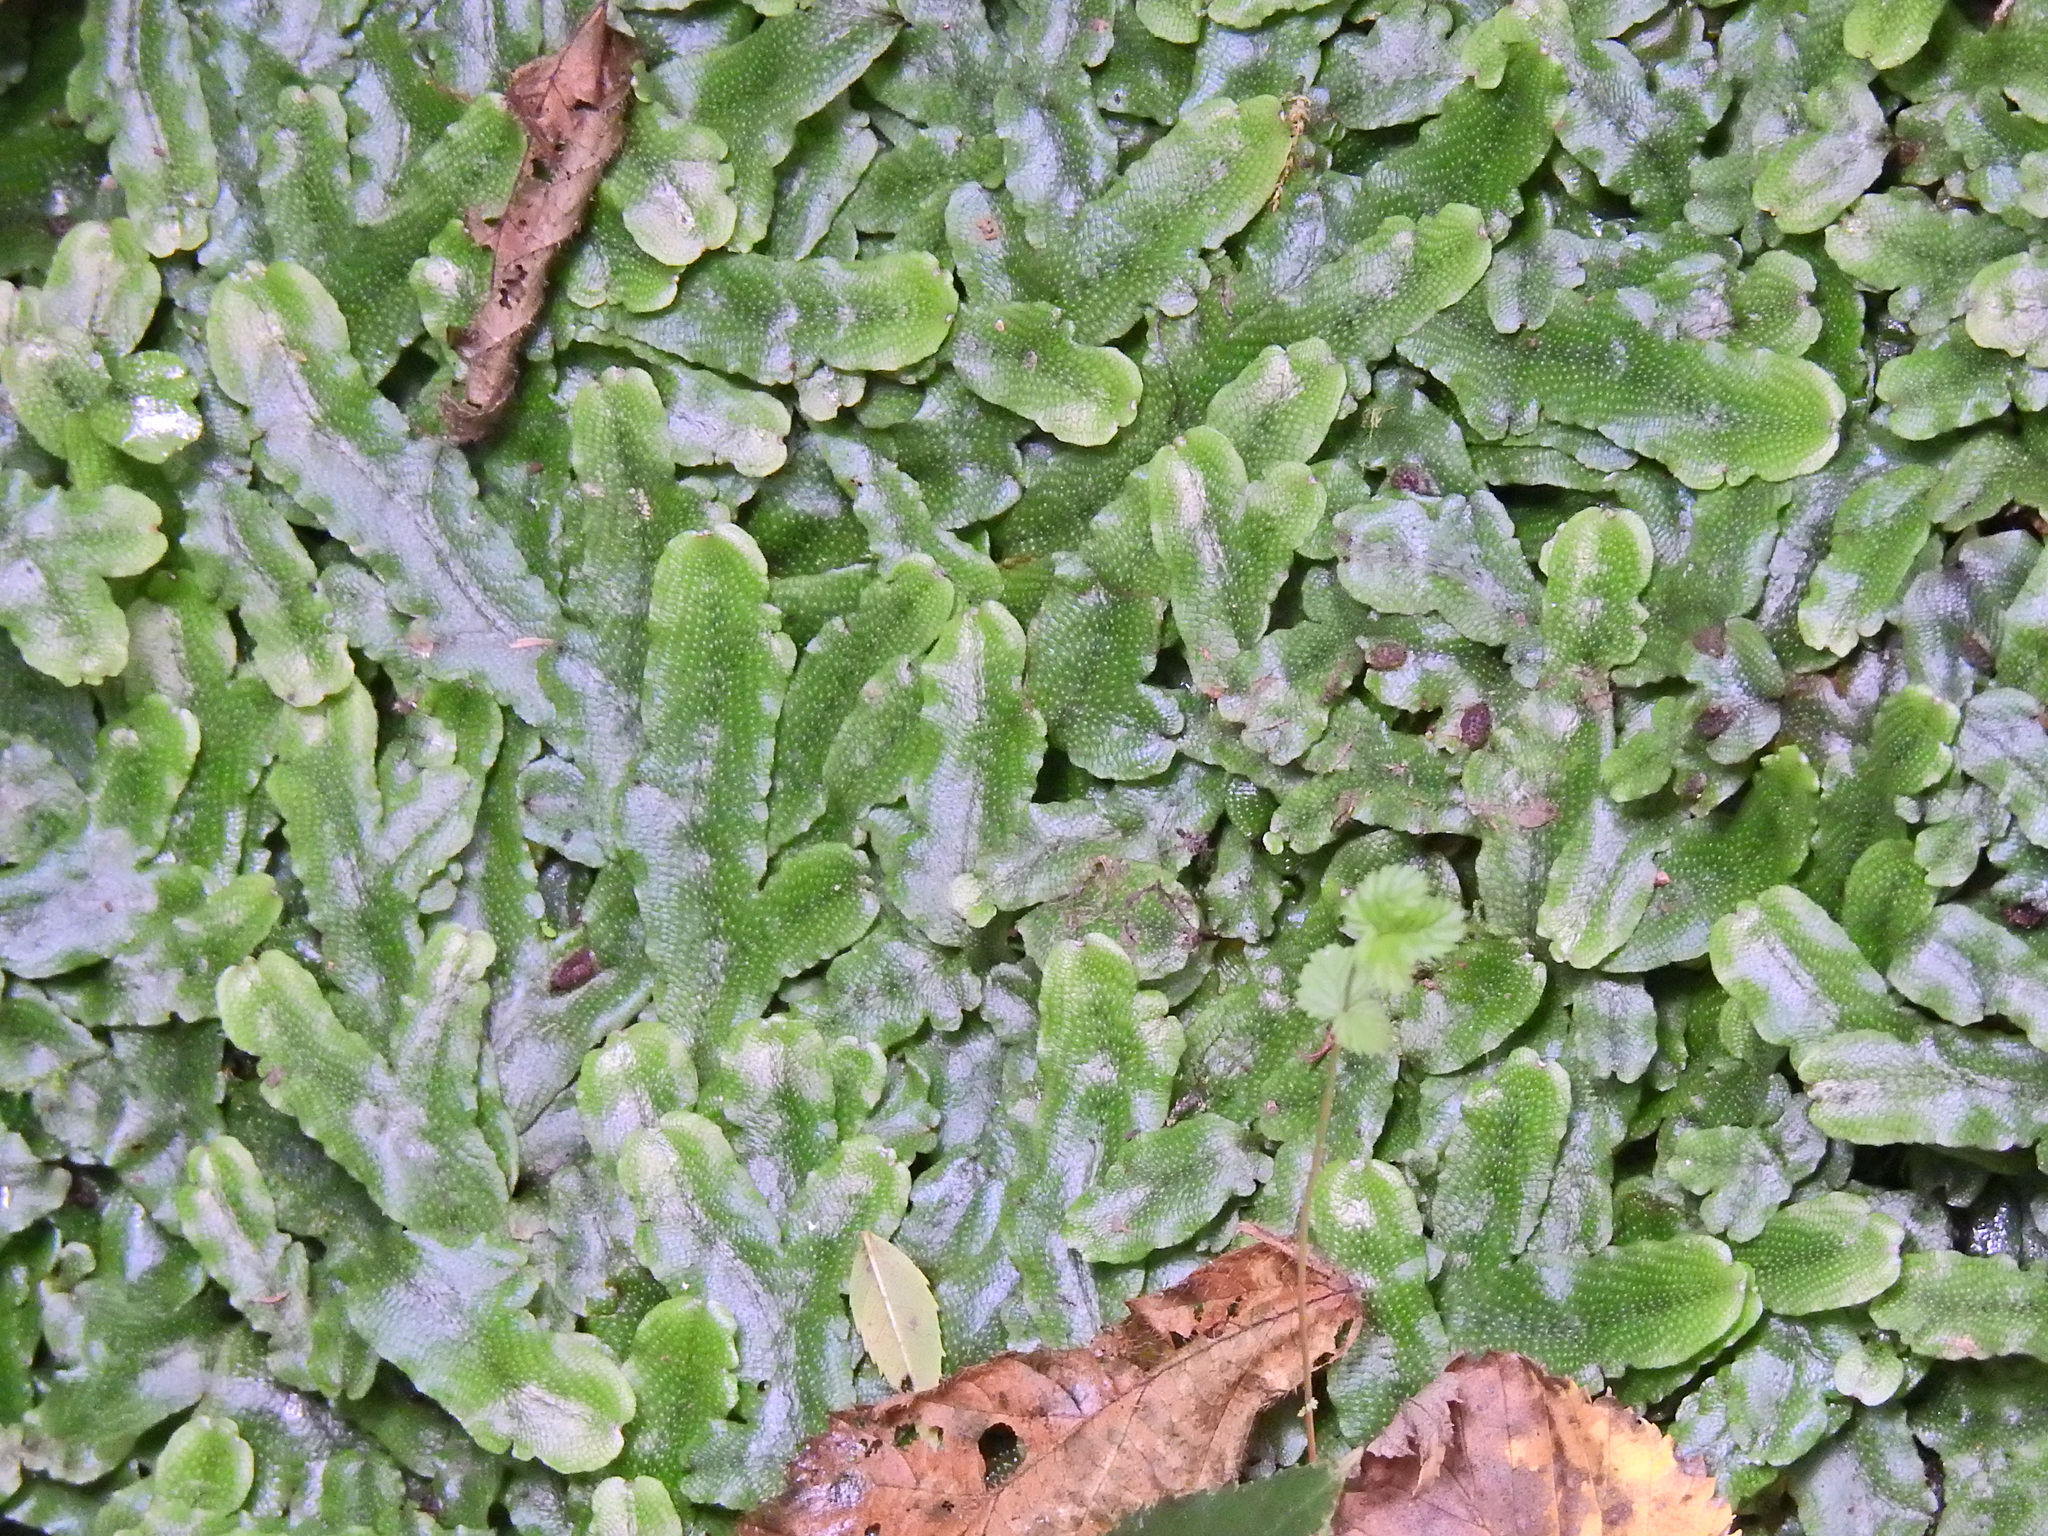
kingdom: Plantae
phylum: Marchantiophyta
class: Marchantiopsida
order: Marchantiales
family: Conocephalaceae
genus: Conocephalum
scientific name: Conocephalum conicum
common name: Great scented liverwort
